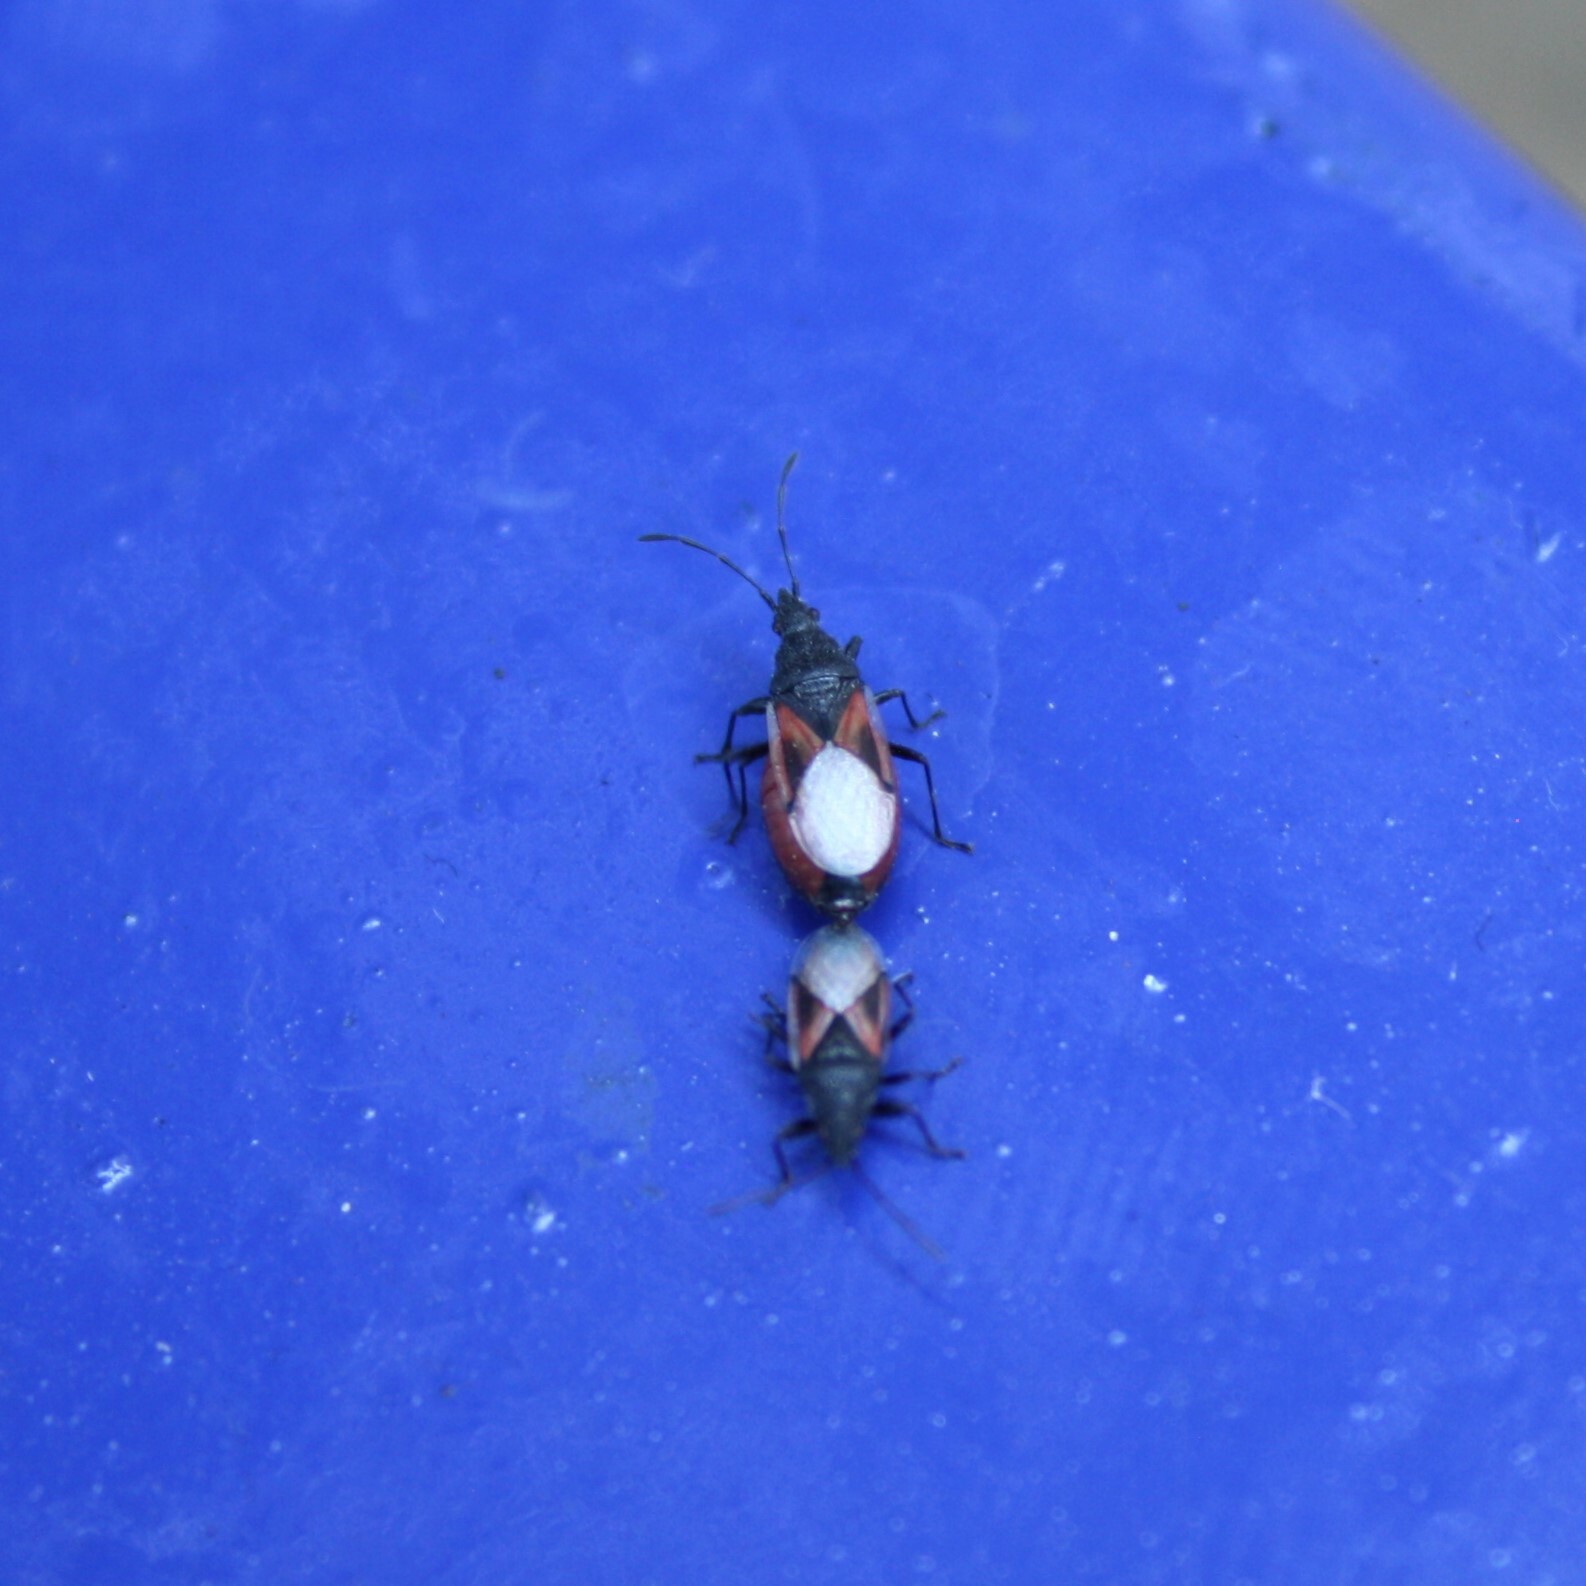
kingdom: Animalia
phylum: Arthropoda
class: Insecta
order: Hemiptera
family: Oxycarenidae
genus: Oxycarenus
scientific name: Oxycarenus lavaterae
